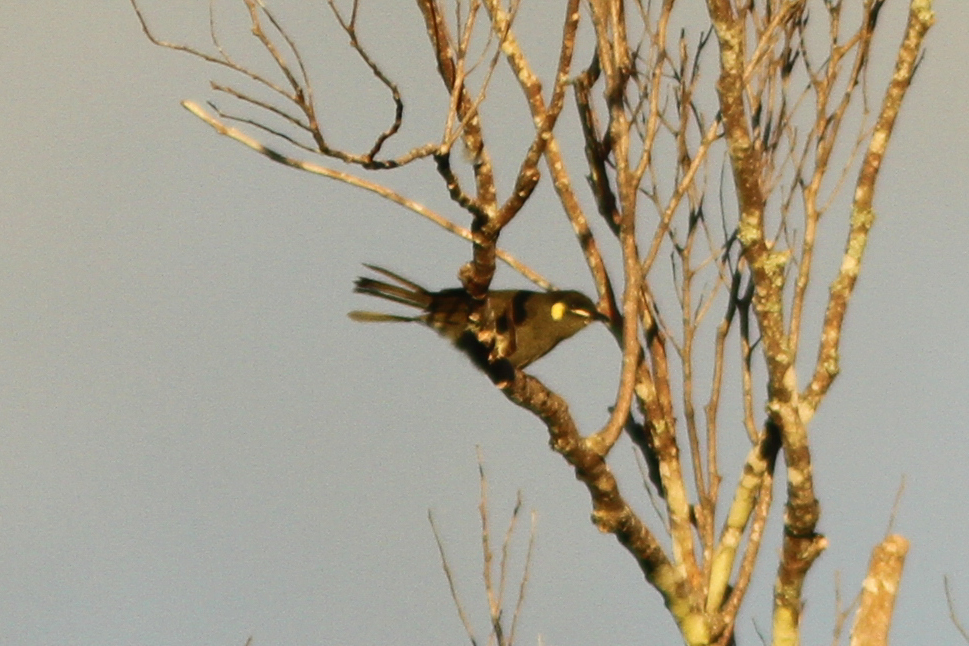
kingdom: Animalia
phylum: Chordata
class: Aves
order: Passeriformes
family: Meliphagidae
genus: Meliphaga
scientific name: Meliphaga notata
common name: Yellow-spotted honeyeater
